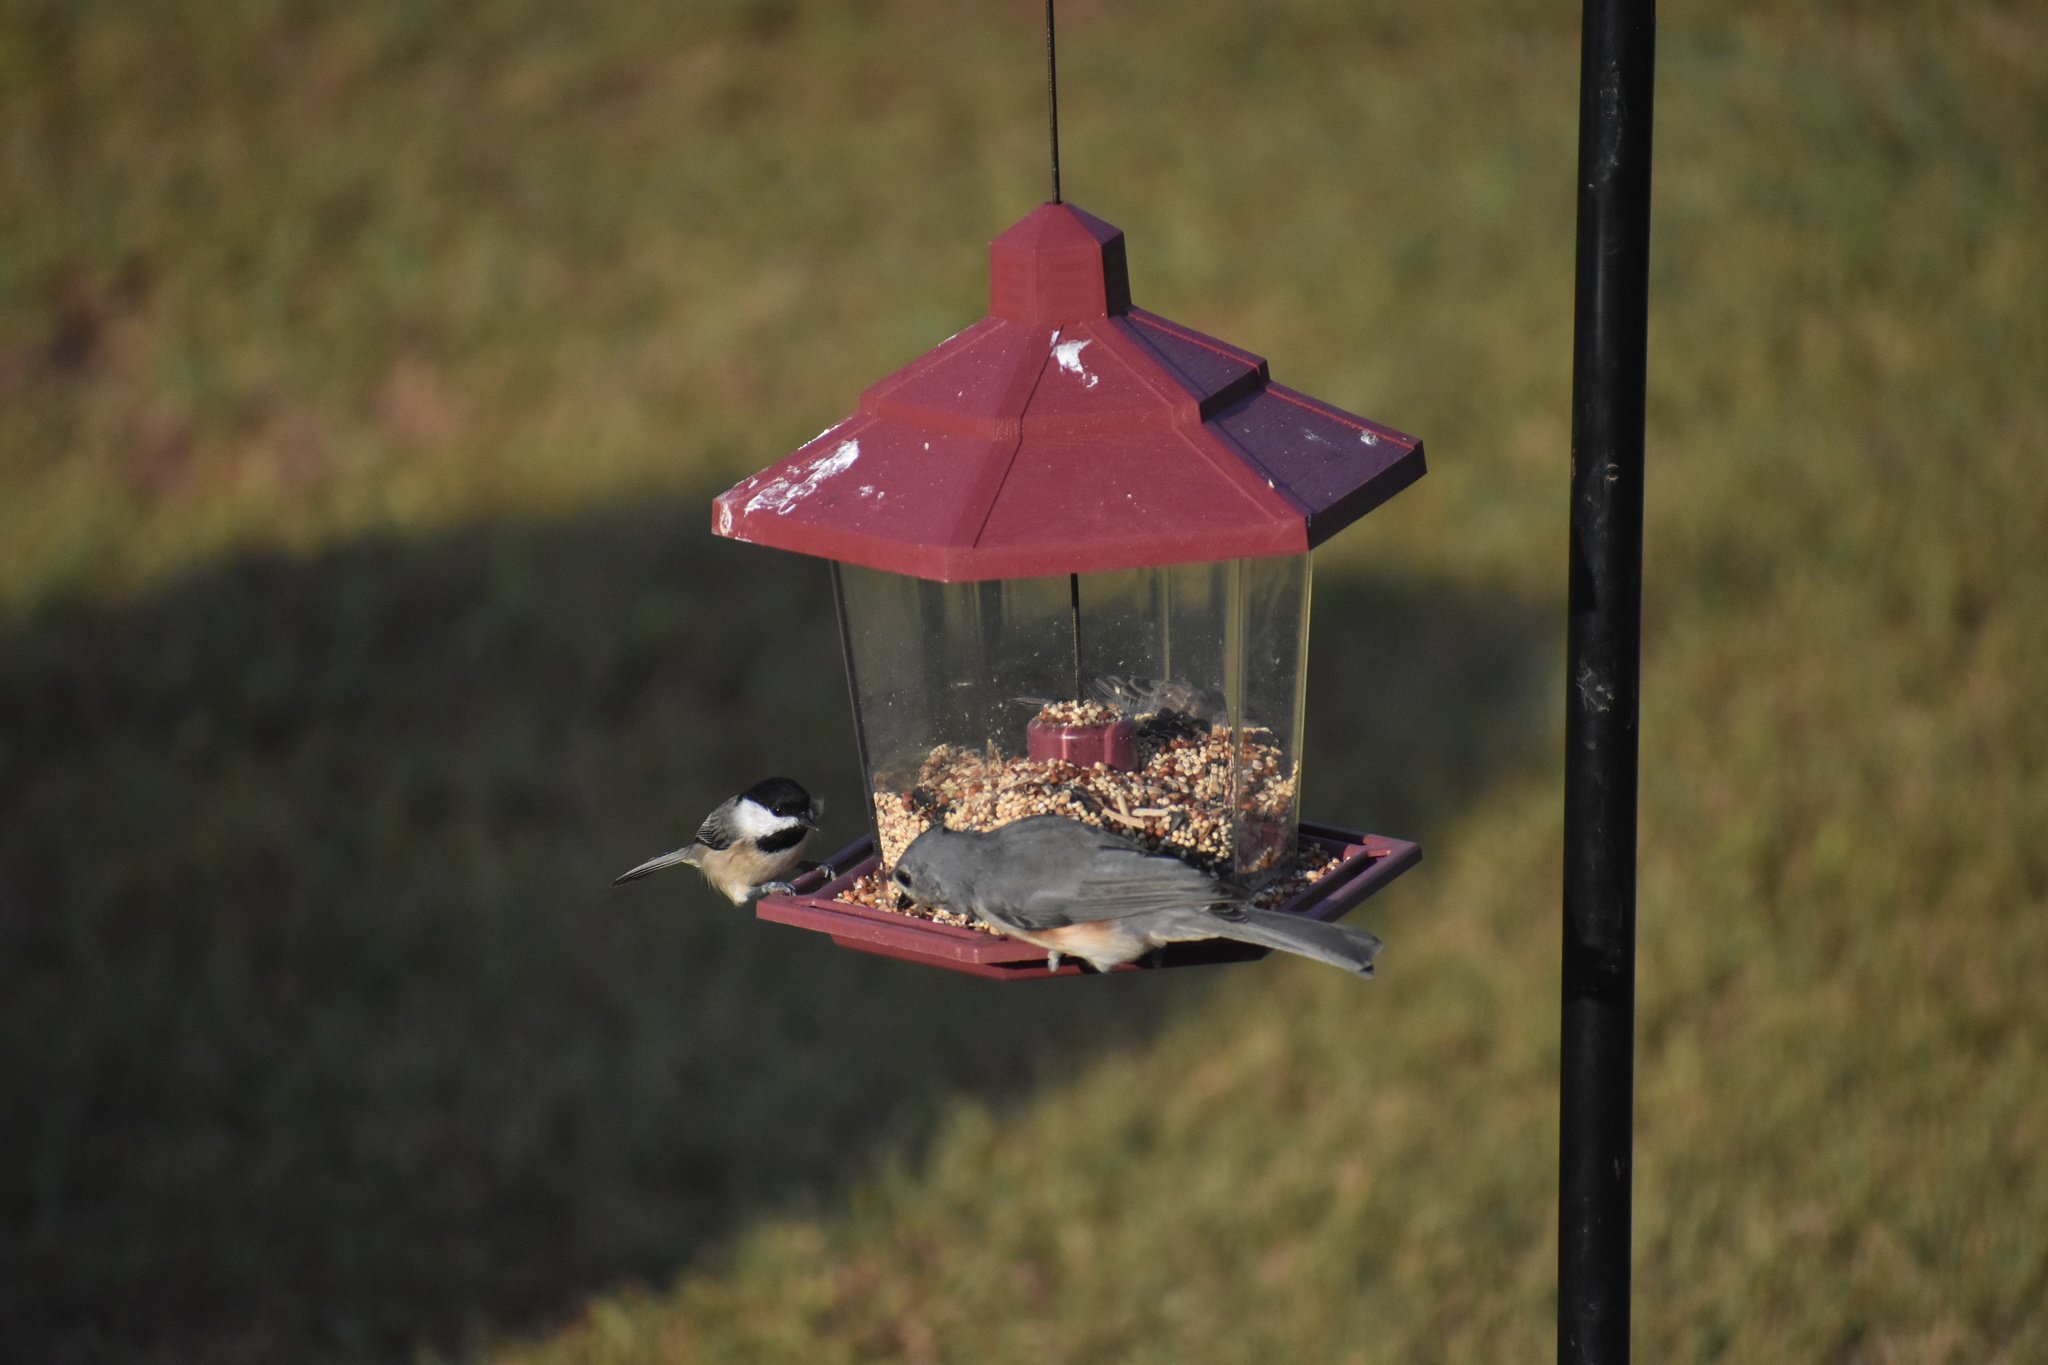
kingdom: Animalia
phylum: Chordata
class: Aves
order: Passeriformes
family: Paridae
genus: Poecile
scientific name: Poecile carolinensis
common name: Carolina chickadee
